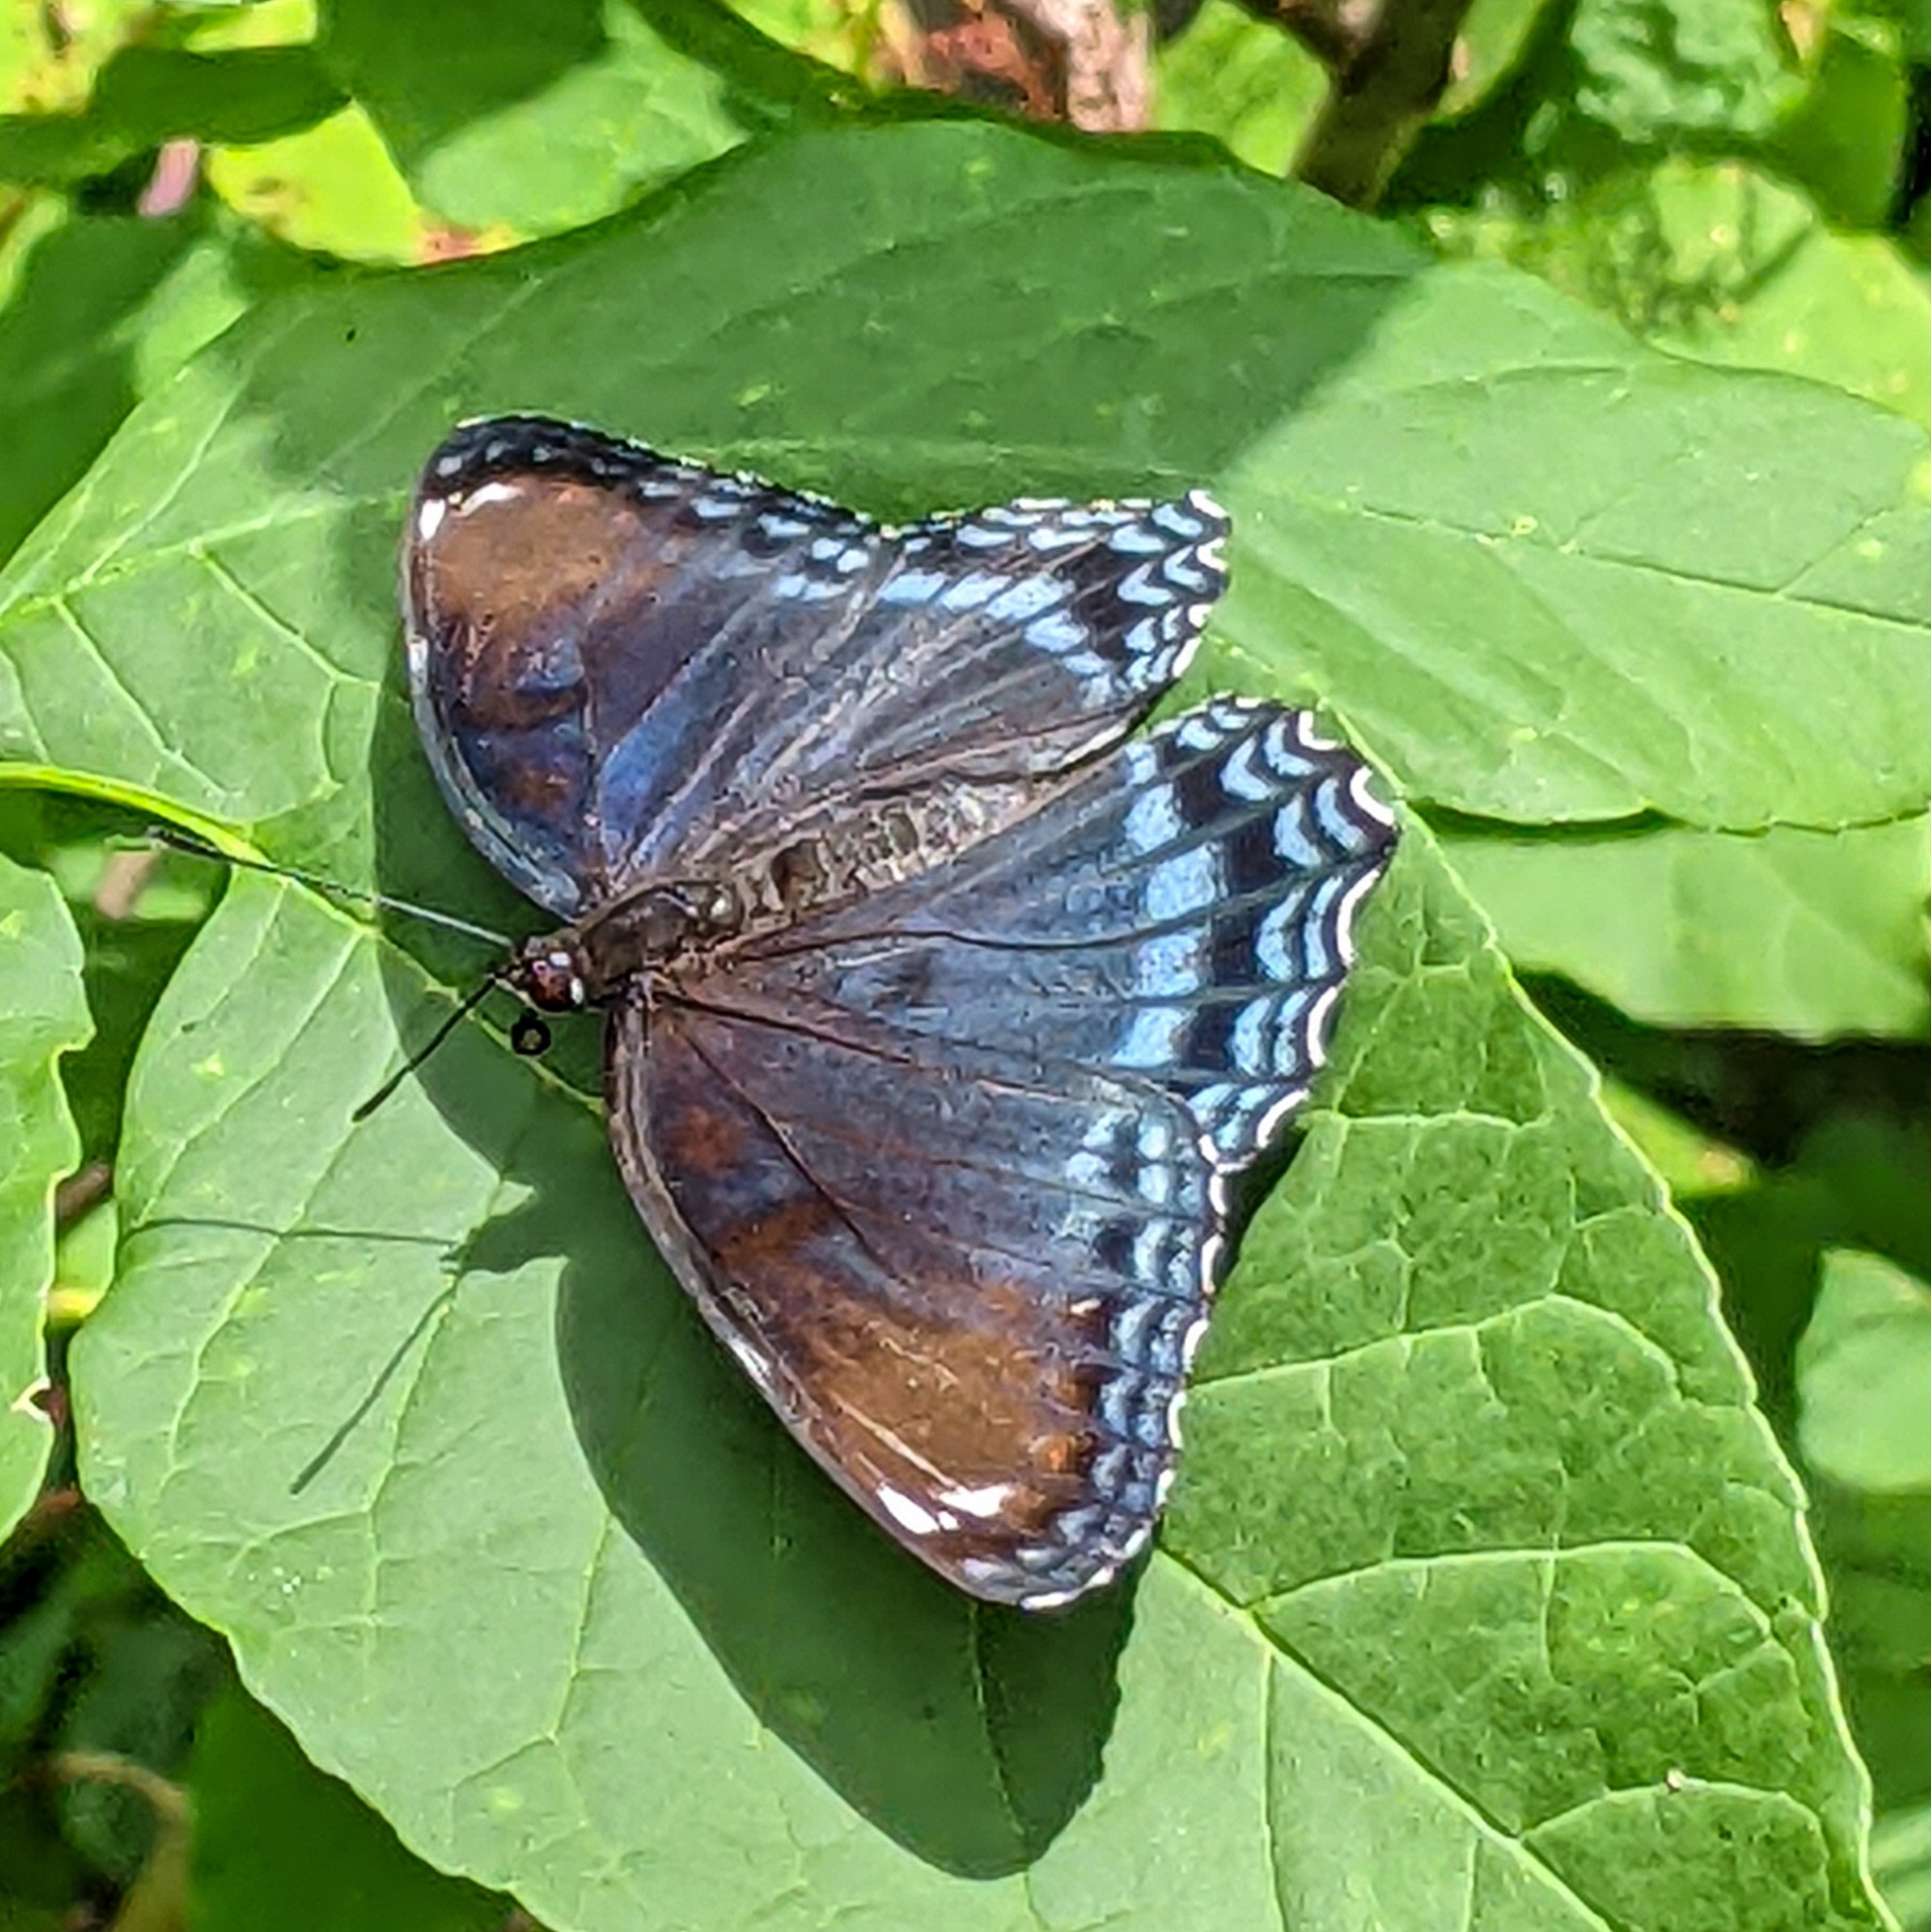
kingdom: Animalia
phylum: Arthropoda
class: Insecta
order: Lepidoptera
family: Nymphalidae
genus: Limenitis
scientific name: Limenitis astyanax
